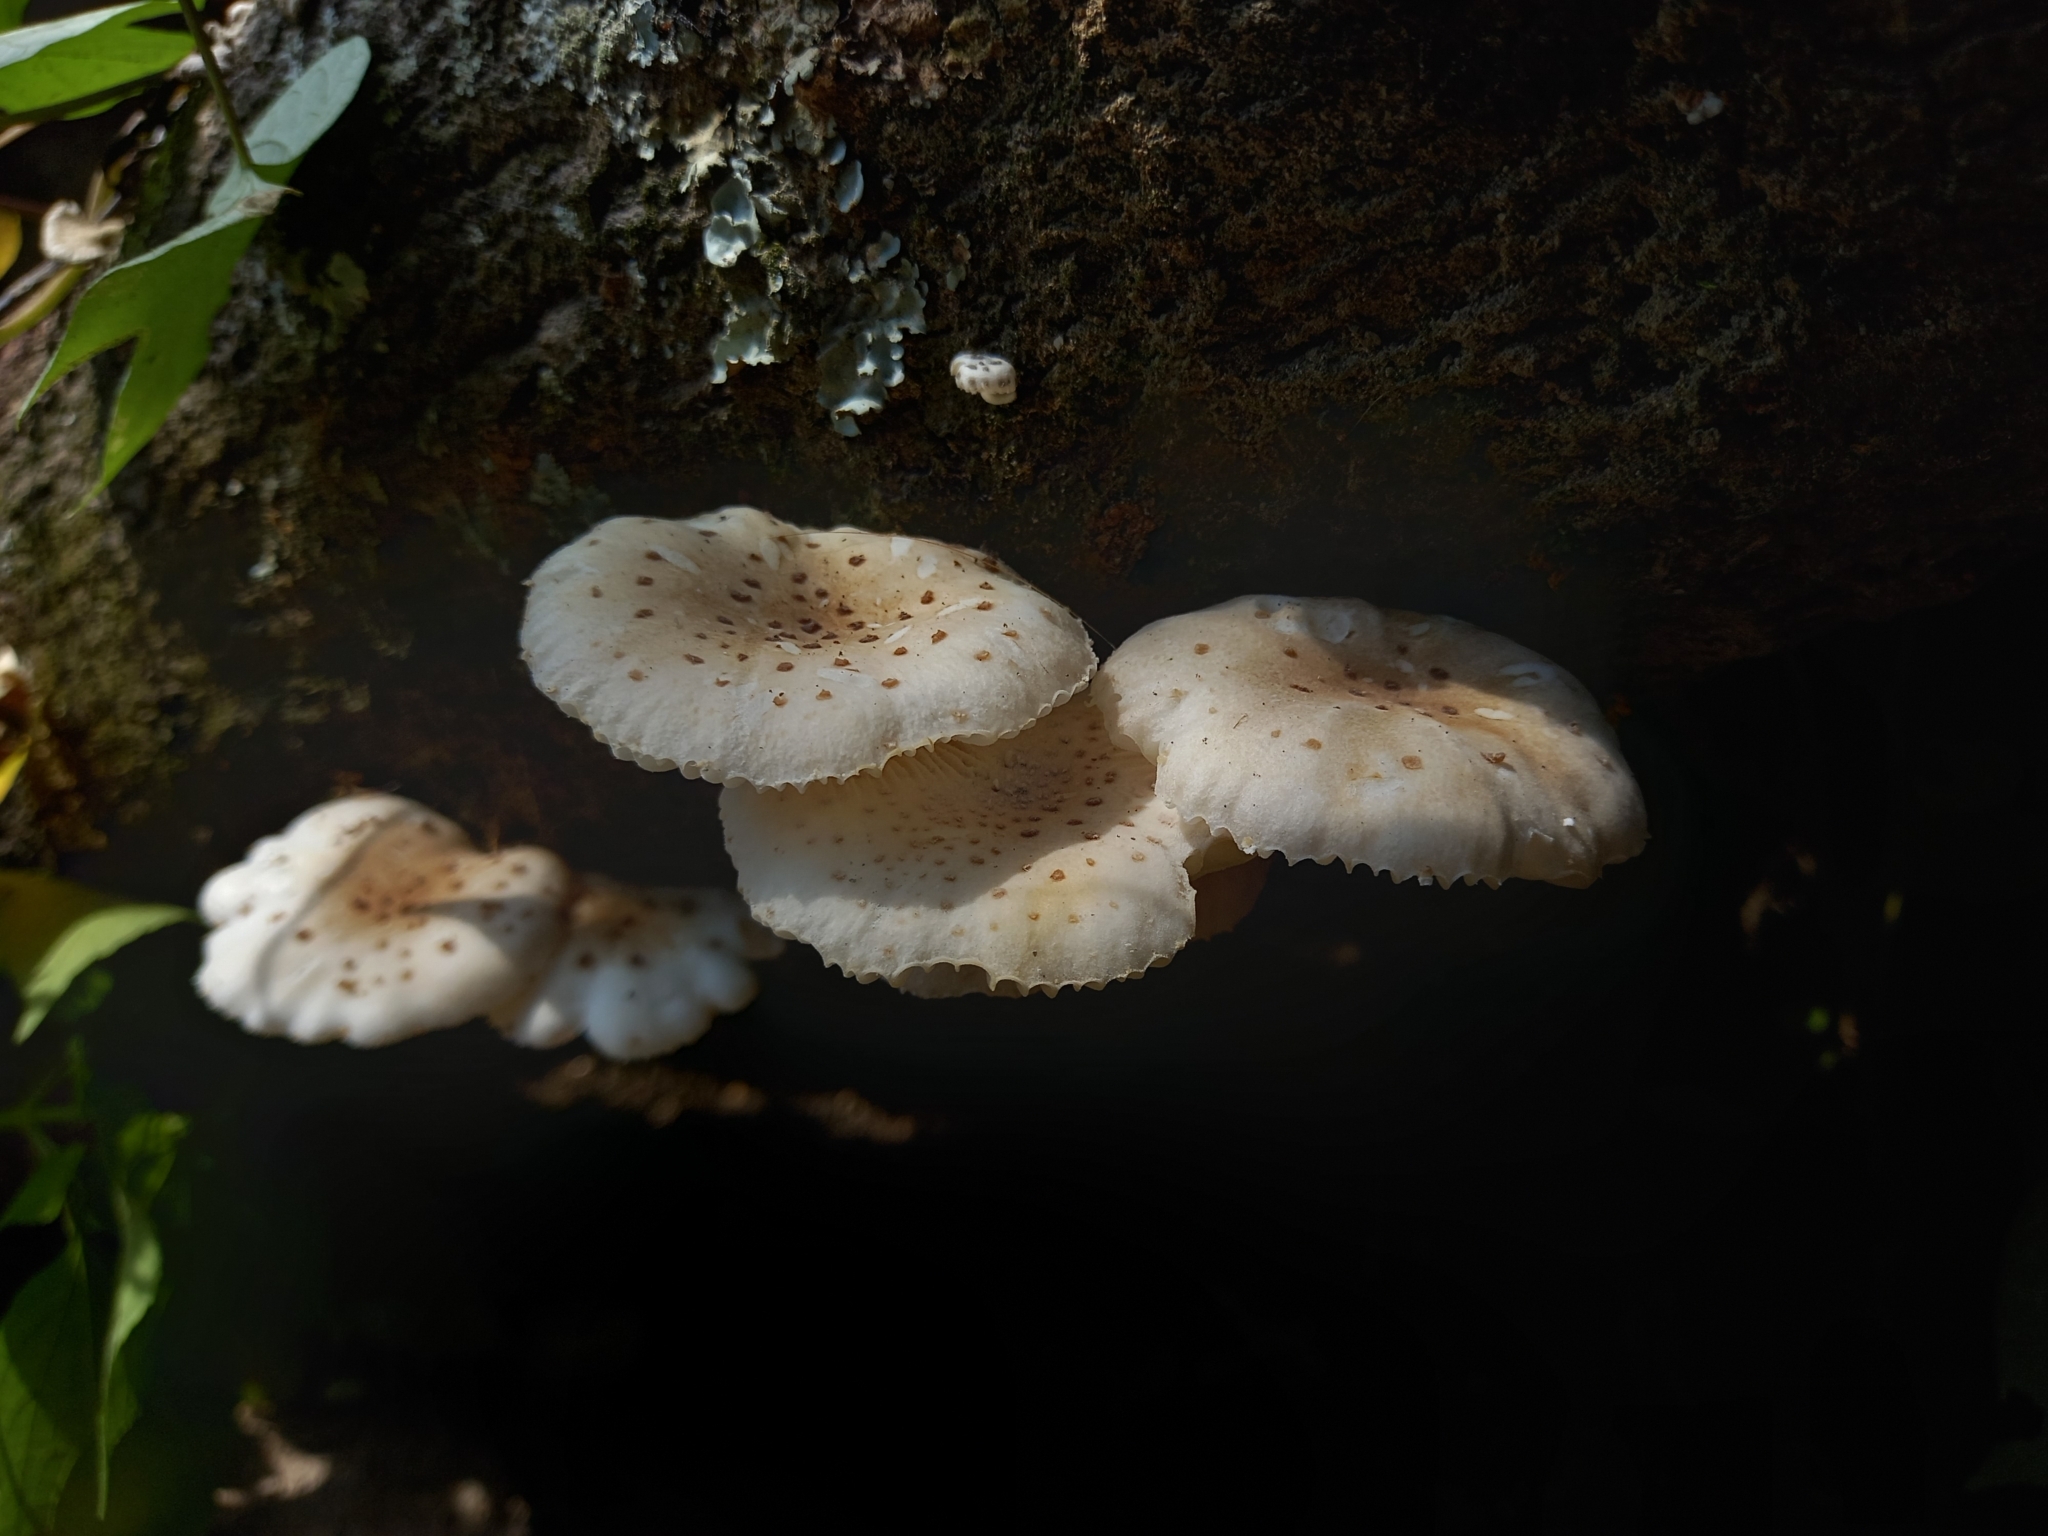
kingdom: Fungi
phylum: Basidiomycota
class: Agaricomycetes
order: Agaricales
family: Physalacriaceae
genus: Oudemansiella
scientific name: Oudemansiella canarii
